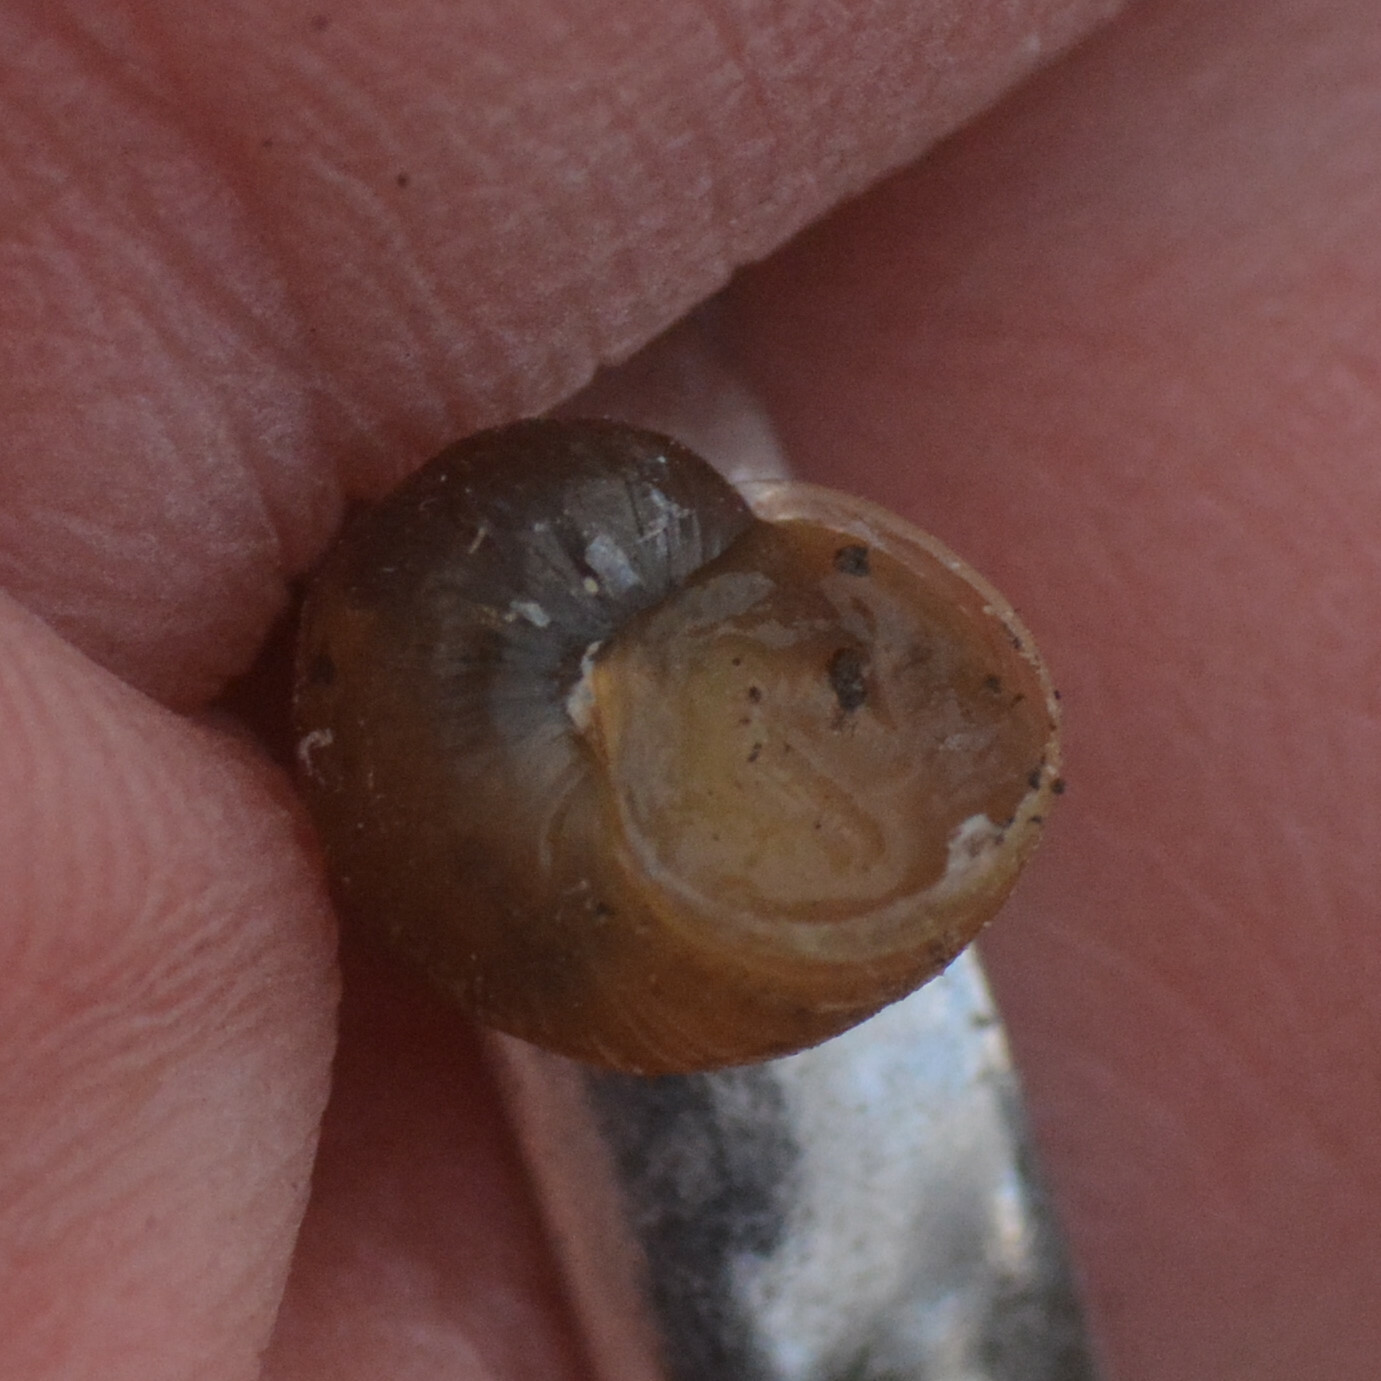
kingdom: Animalia
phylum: Mollusca
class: Gastropoda
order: Stylommatophora
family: Helicidae
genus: Cornu
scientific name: Cornu aspersum
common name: Brown garden snail
